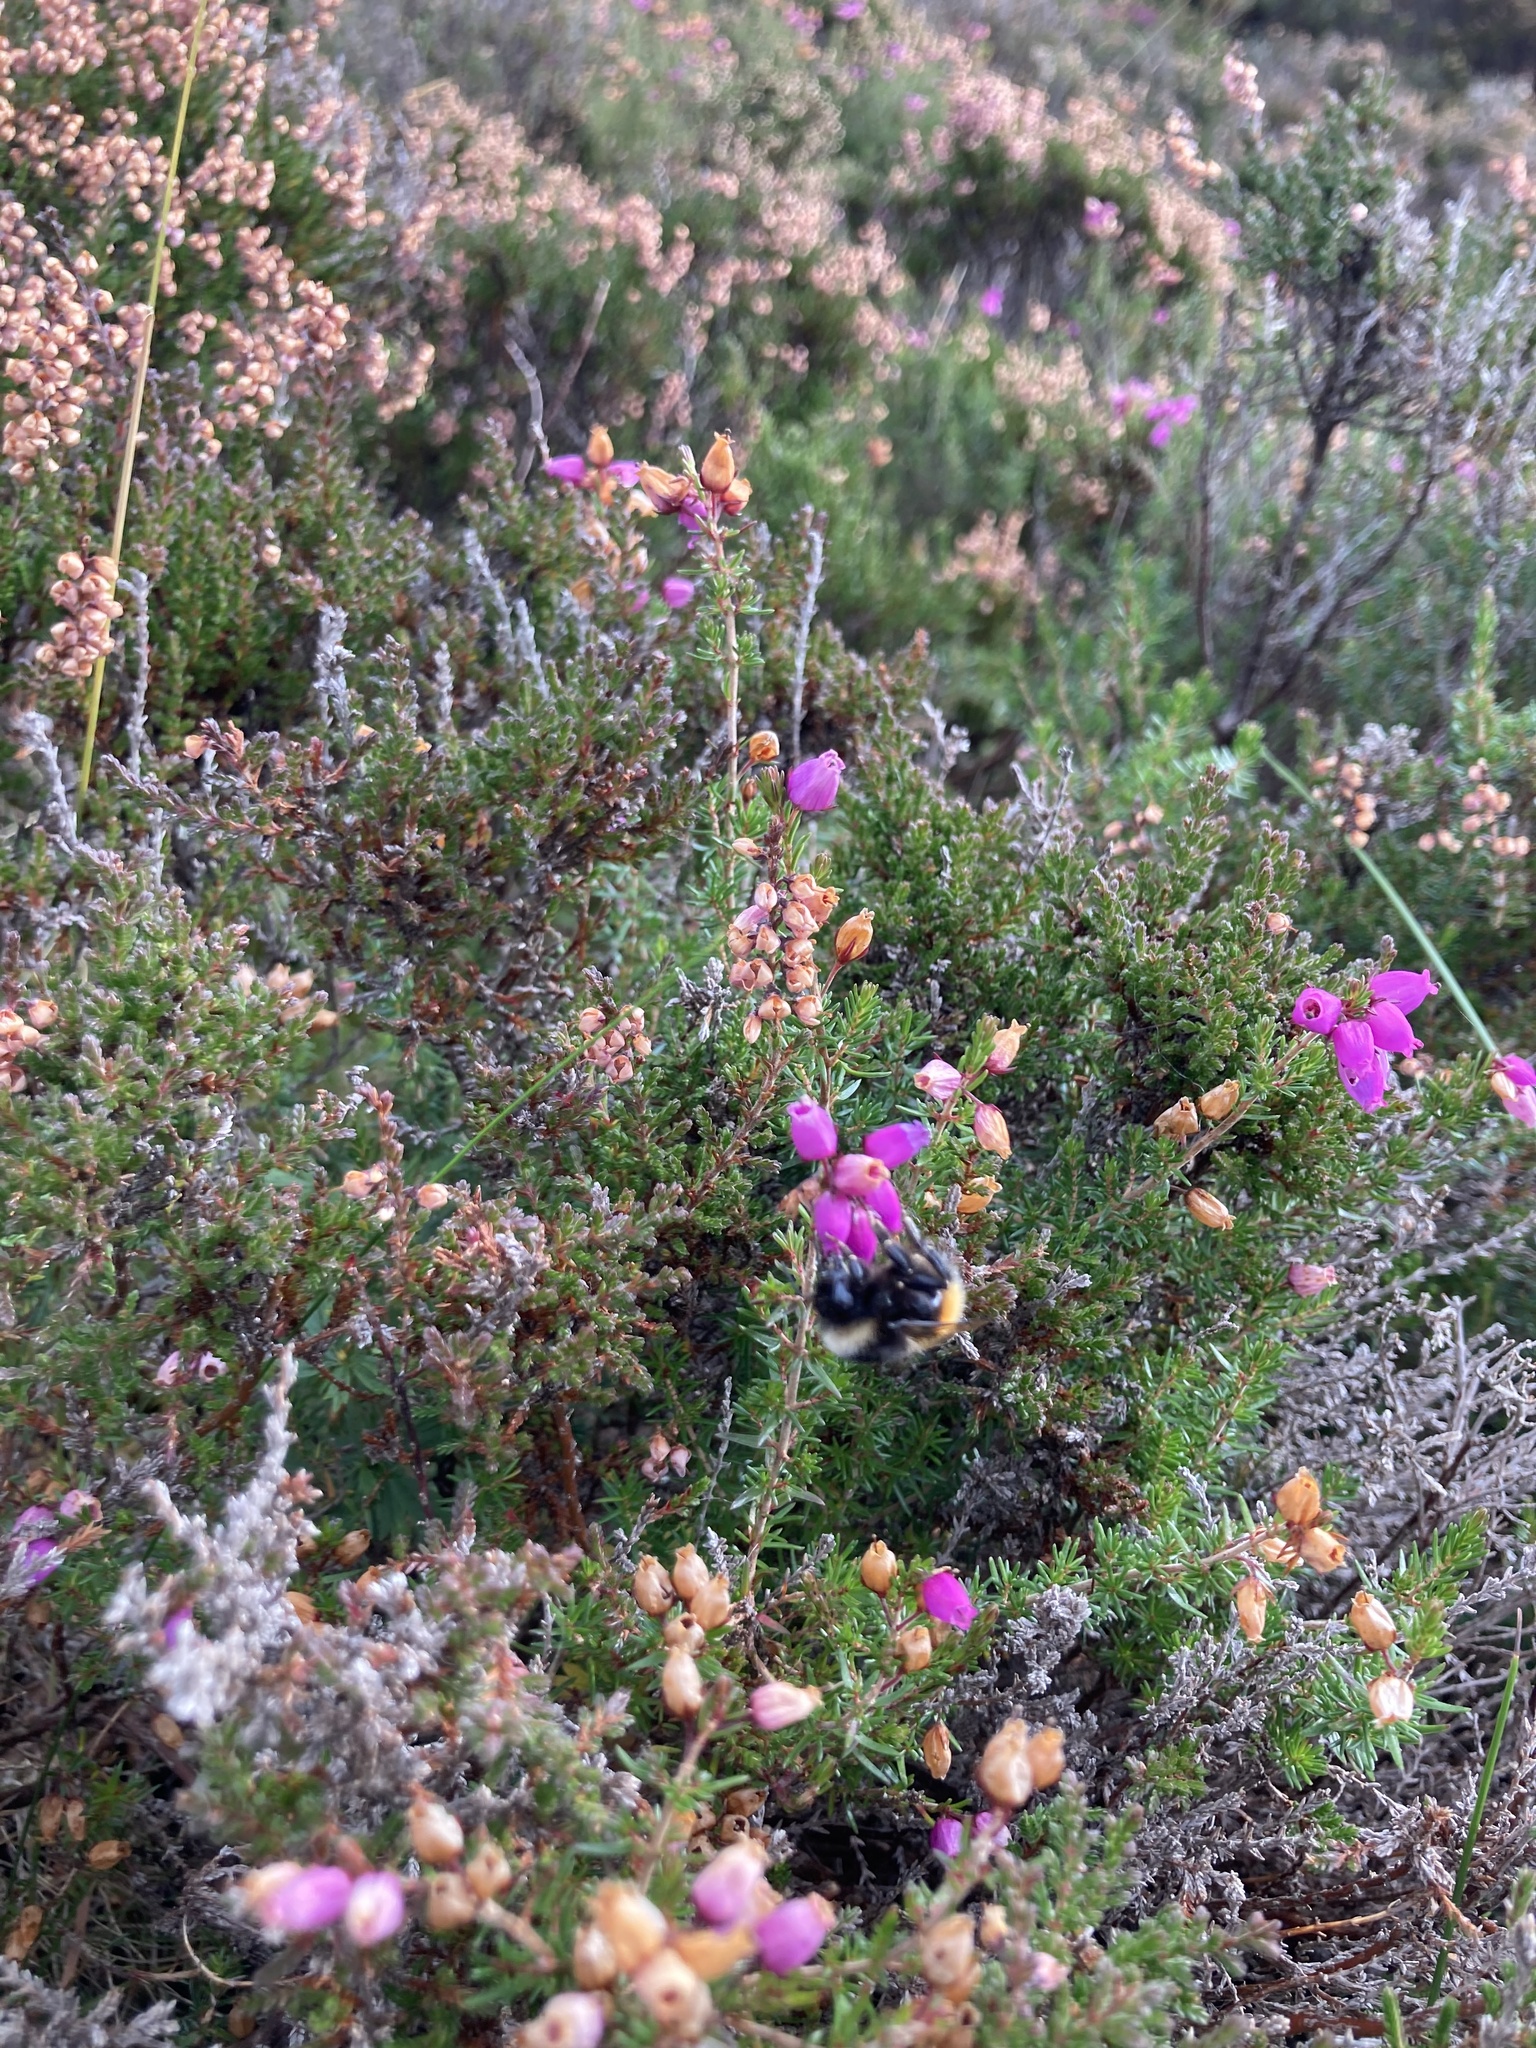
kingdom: Animalia
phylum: Arthropoda
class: Insecta
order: Hymenoptera
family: Apidae
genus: Bombus
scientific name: Bombus monticola
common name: Bilberry humble-bee
